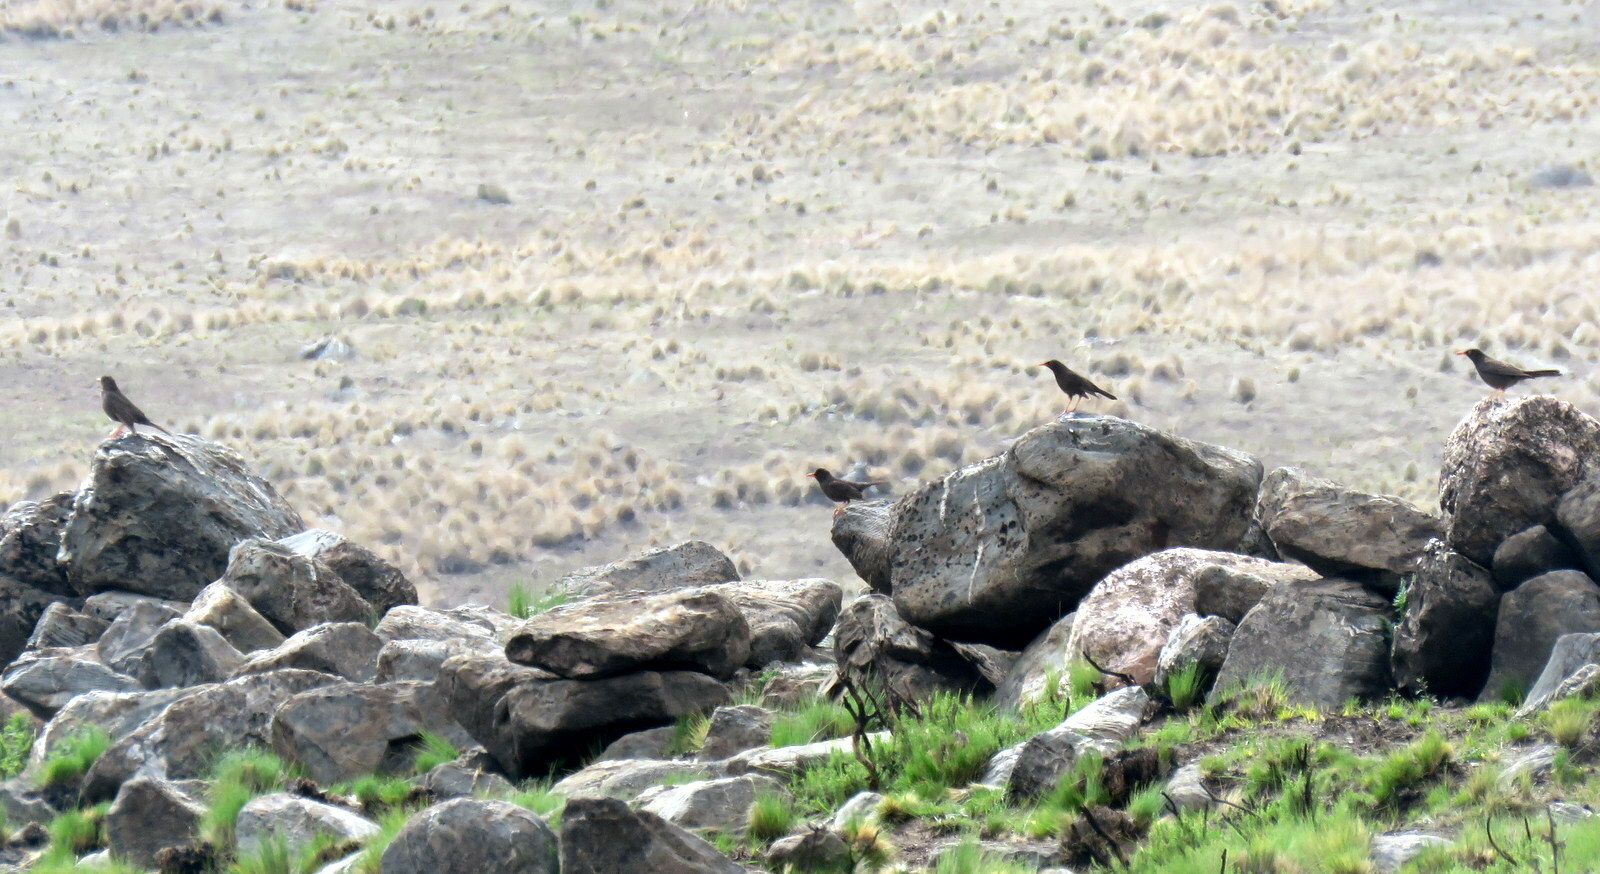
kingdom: Animalia
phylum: Chordata
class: Aves
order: Passeriformes
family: Turdidae
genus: Turdus
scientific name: Turdus chiguanco
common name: Chiguanco thrush
